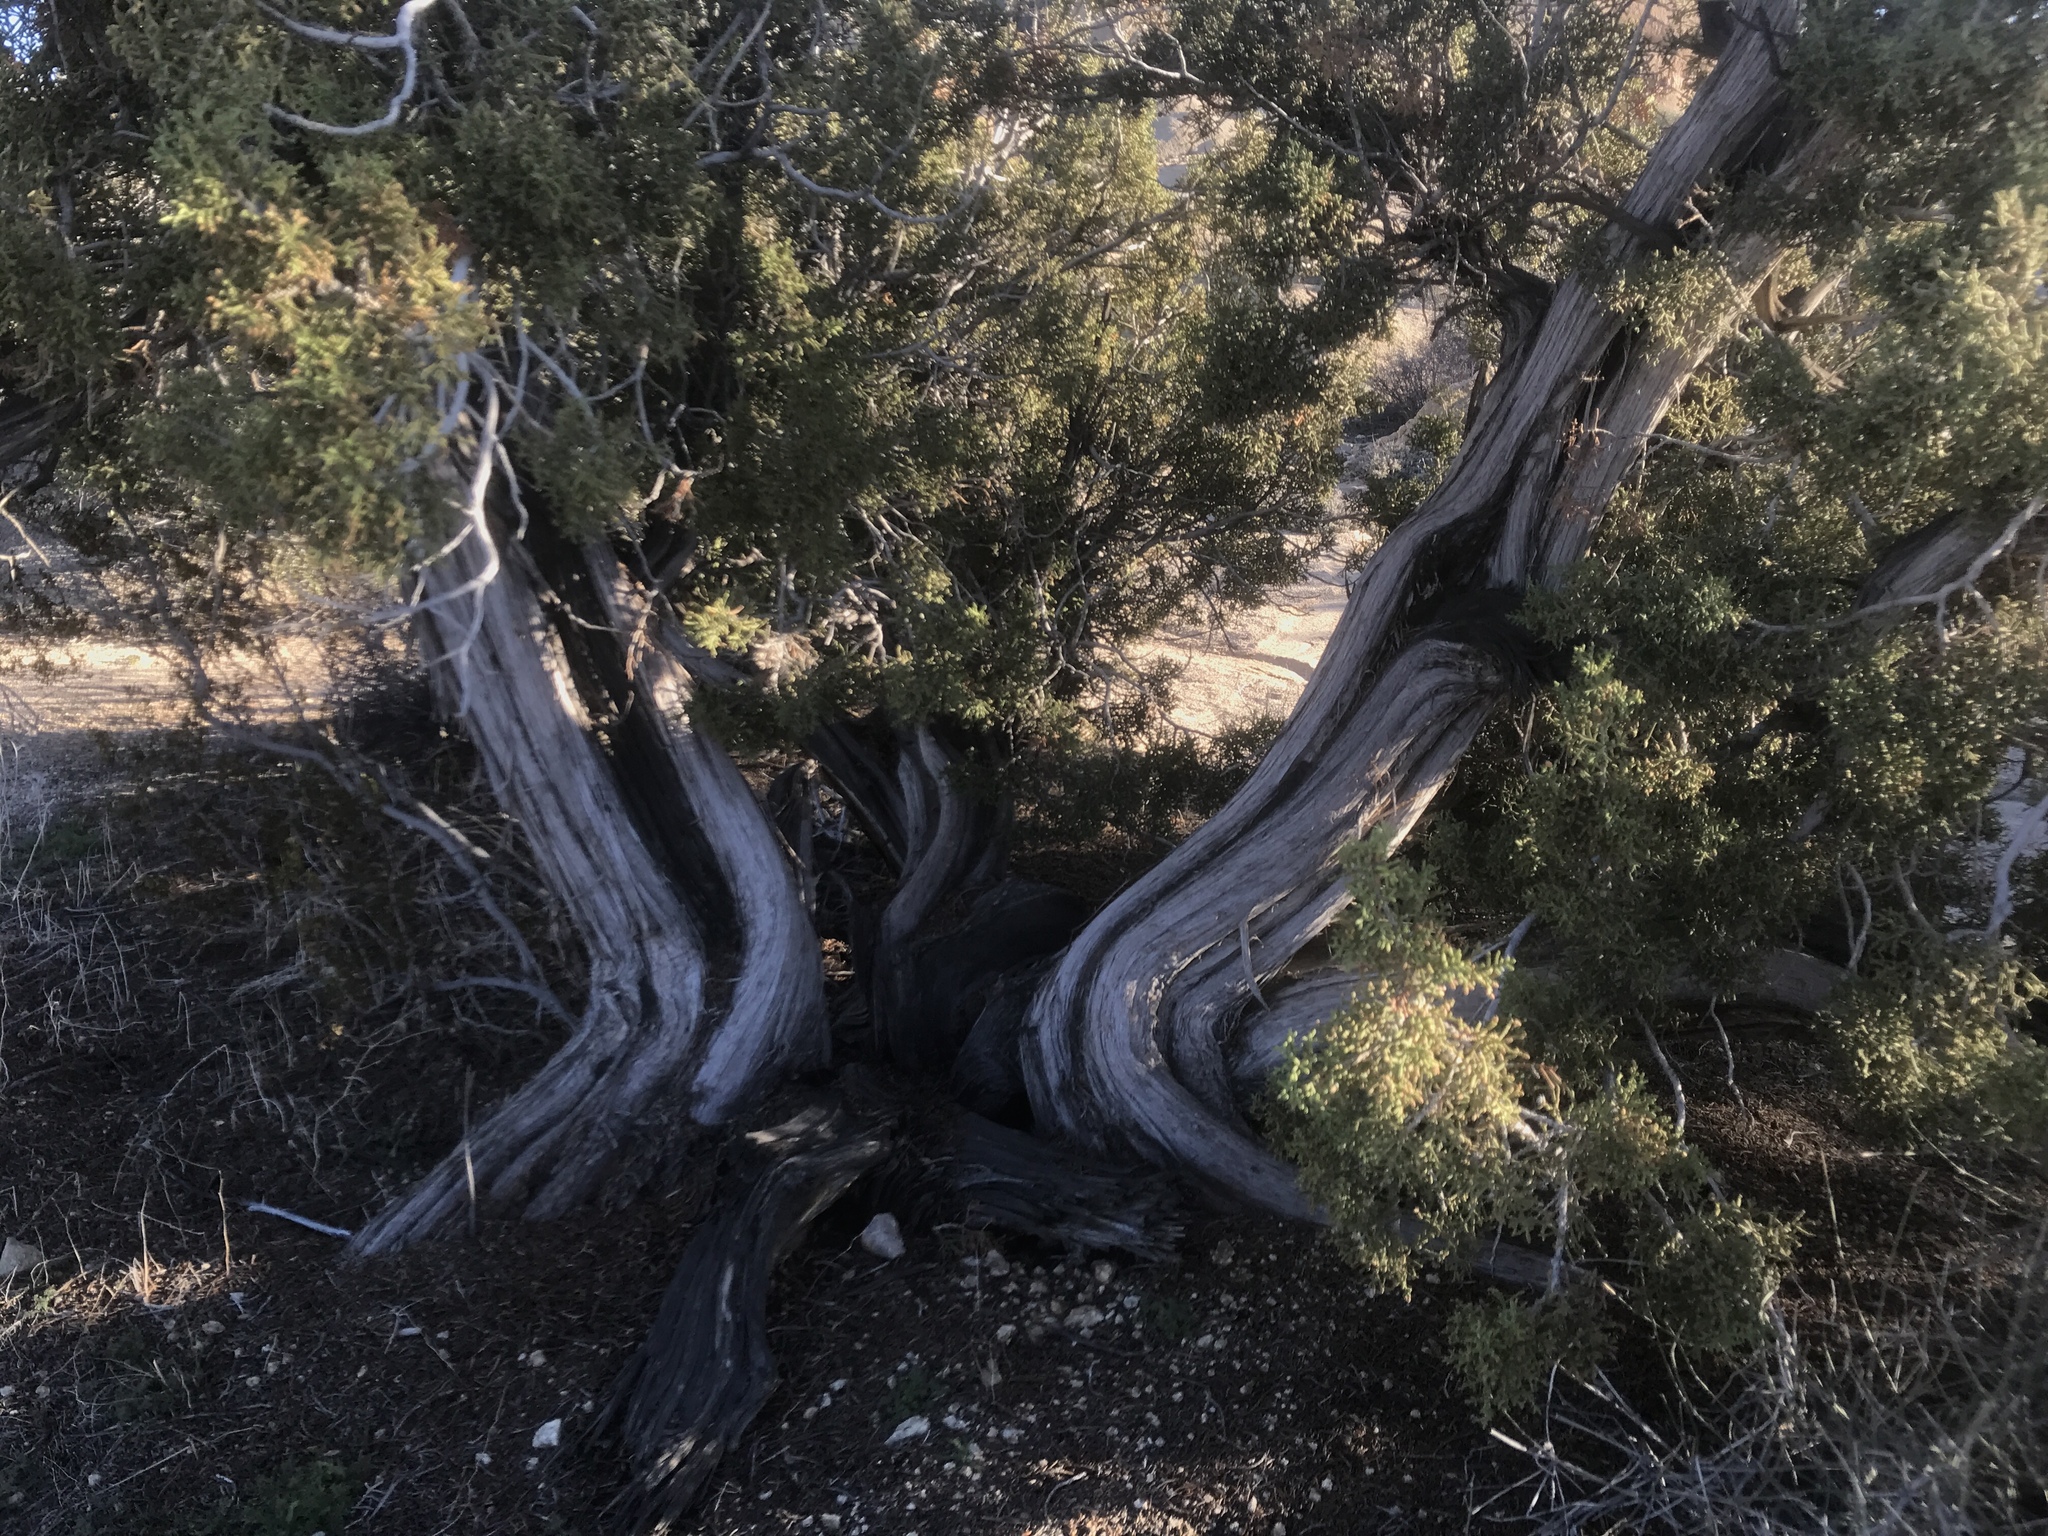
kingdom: Plantae
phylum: Tracheophyta
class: Pinopsida
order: Pinales
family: Cupressaceae
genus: Juniperus
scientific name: Juniperus californica
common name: California juniper
